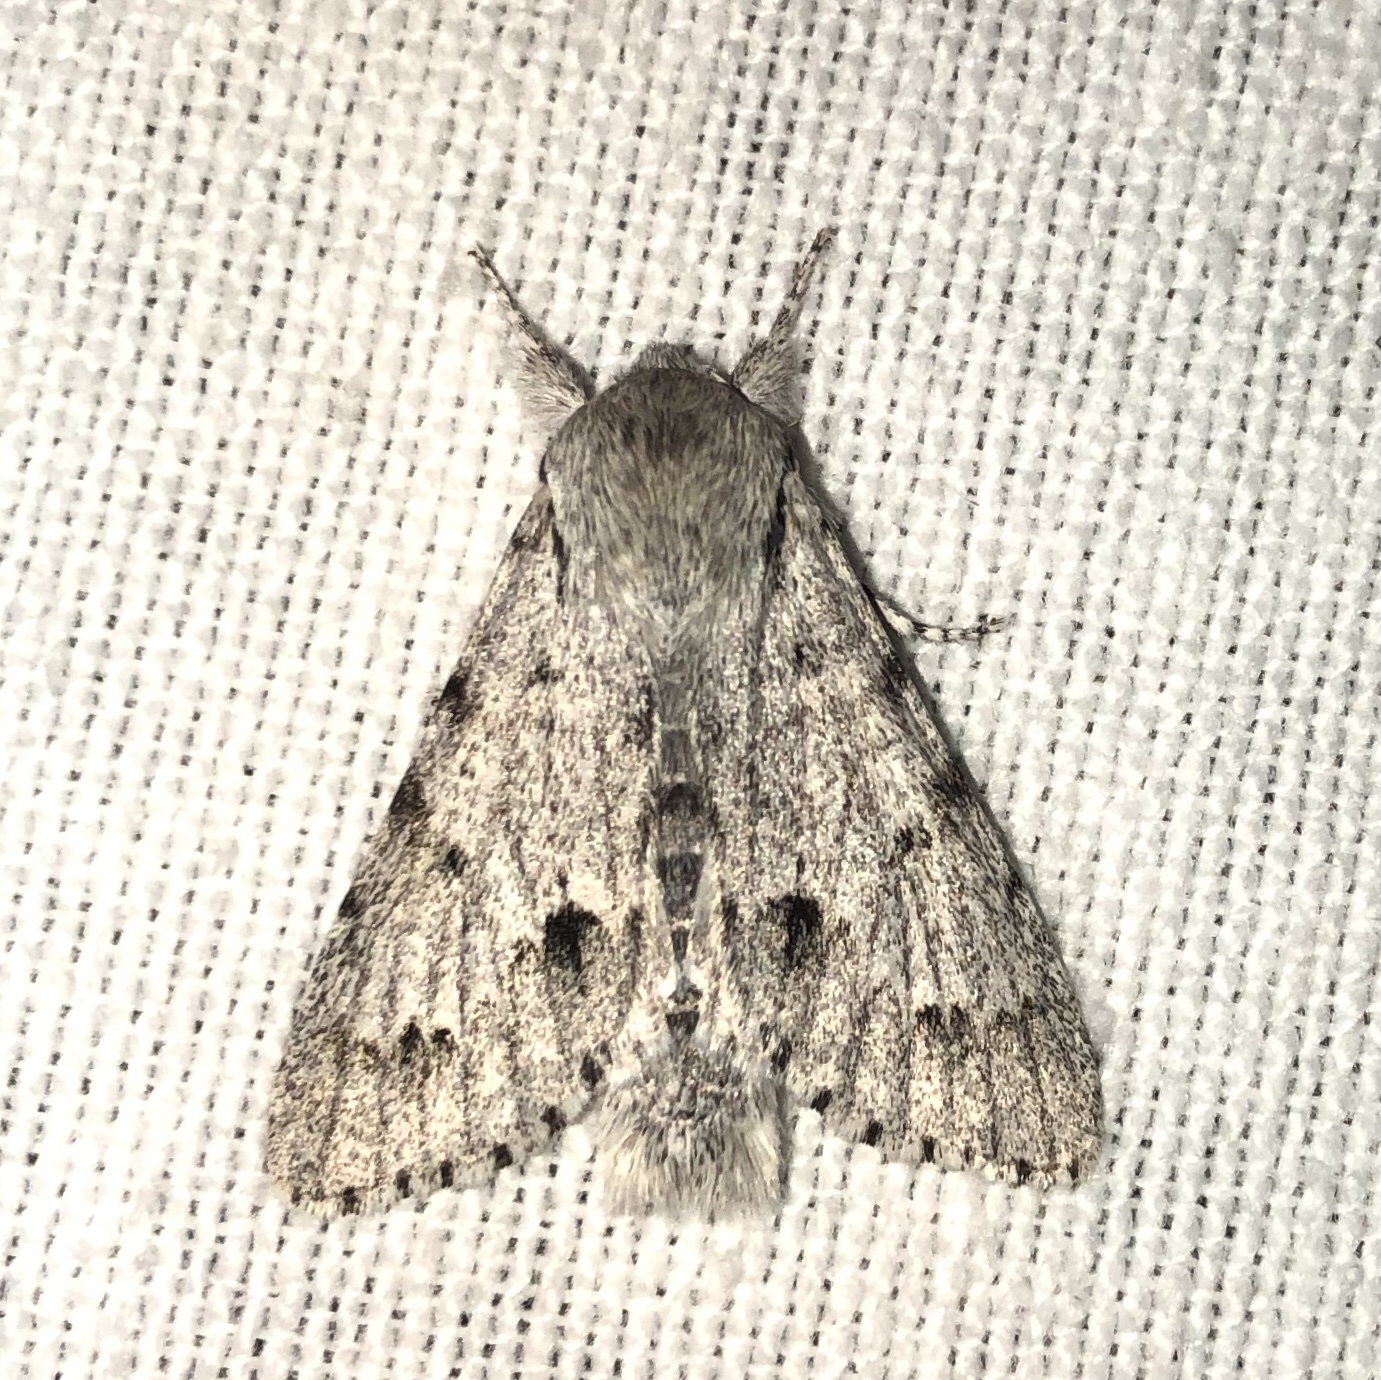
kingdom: Animalia
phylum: Arthropoda
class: Insecta
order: Lepidoptera
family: Noctuidae
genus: Acronicta
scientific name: Acronicta lepusculina
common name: Cottonwood dagger
